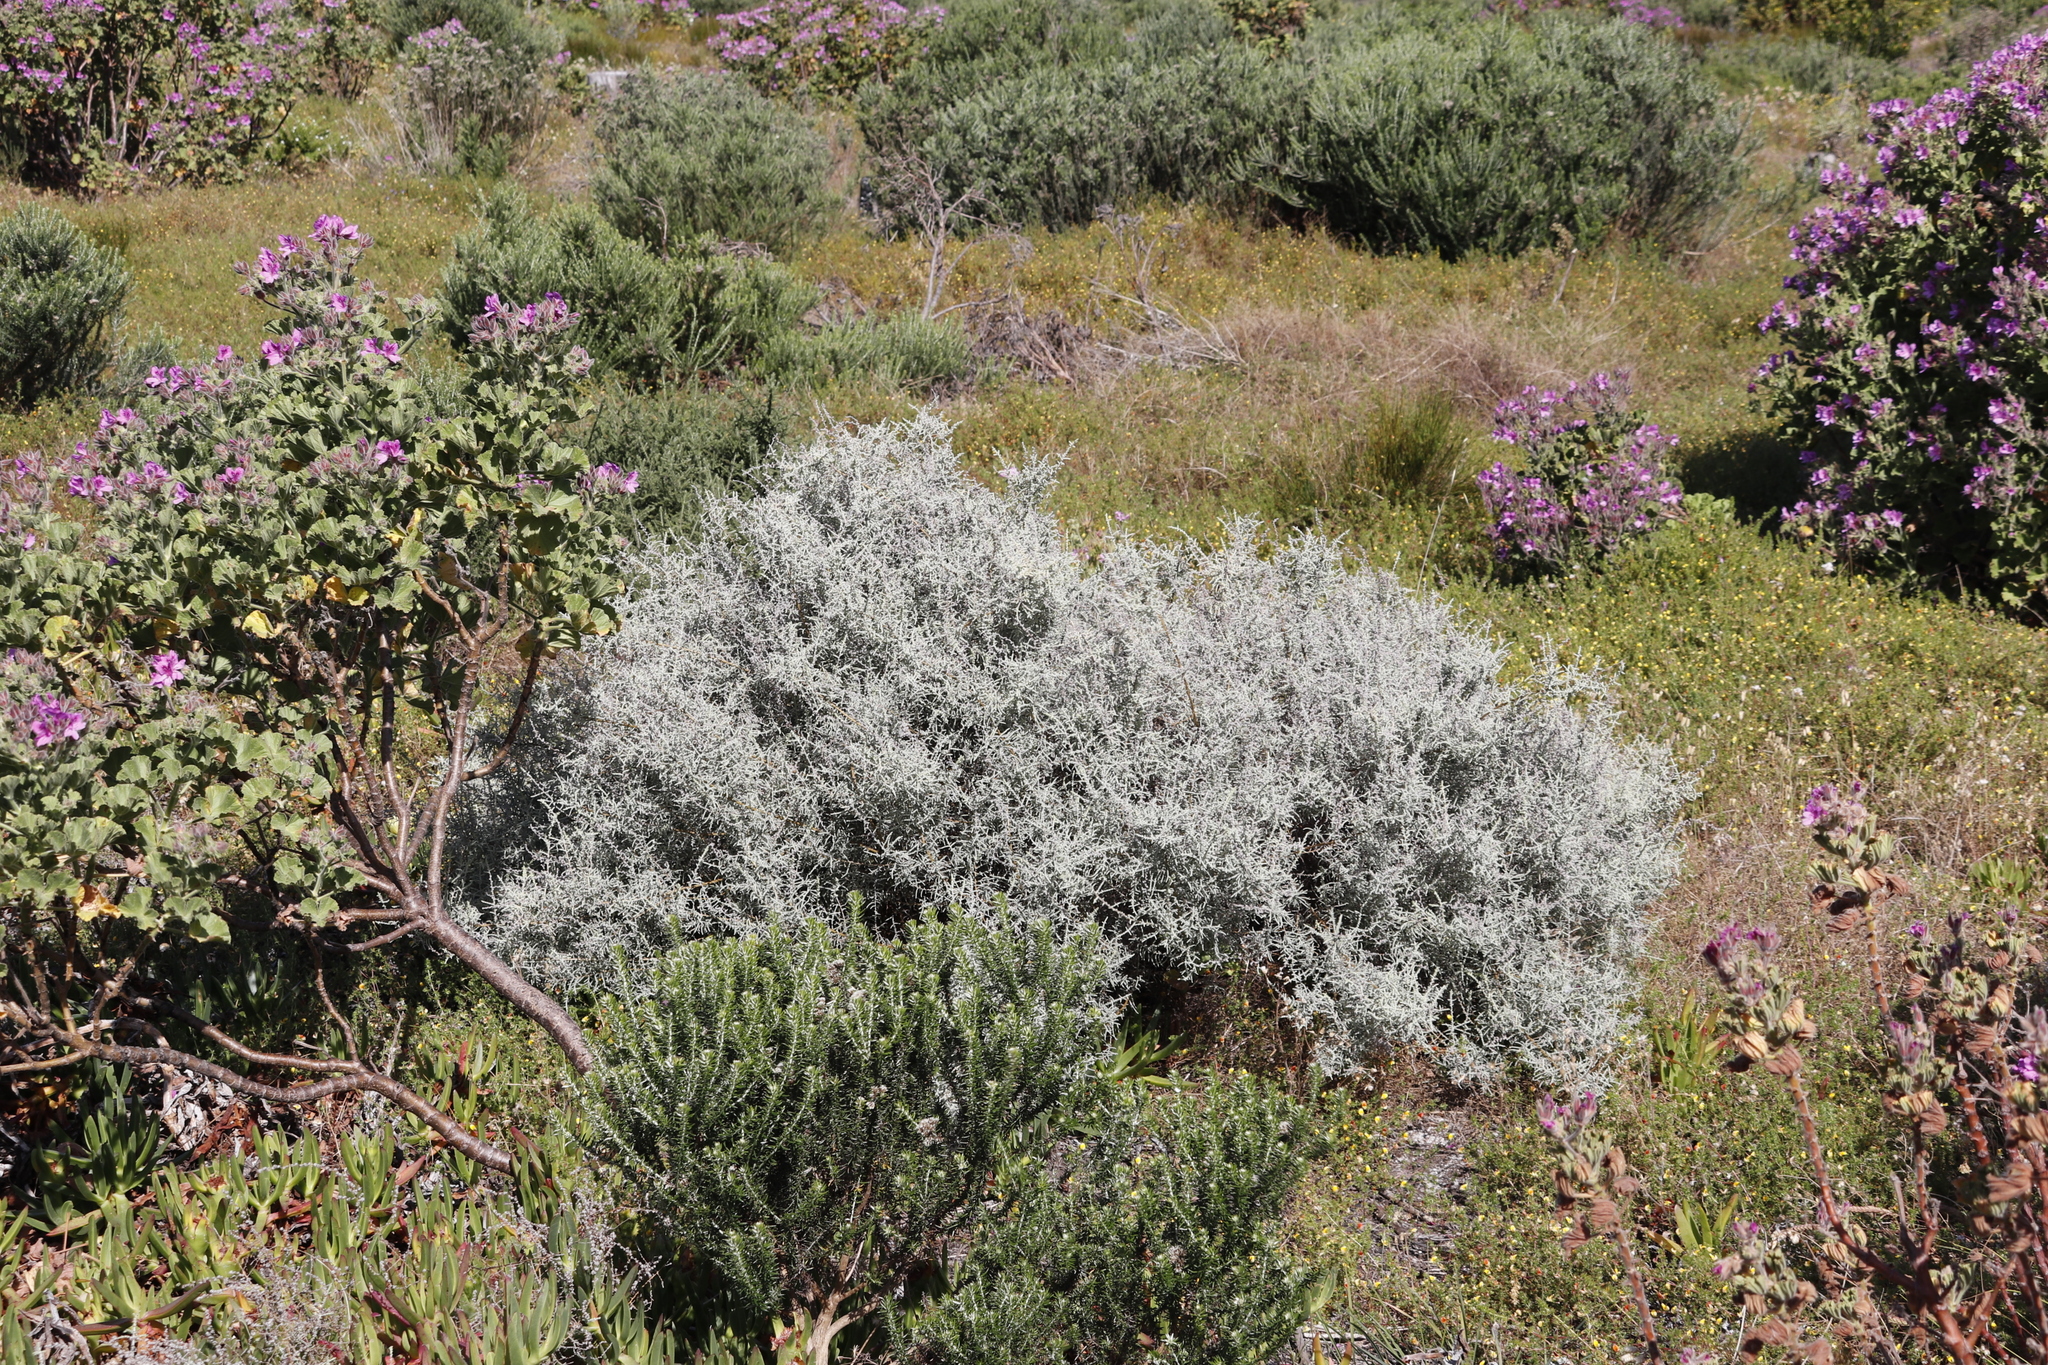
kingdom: Plantae
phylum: Tracheophyta
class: Magnoliopsida
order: Asterales
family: Asteraceae
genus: Seriphium
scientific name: Seriphium plumosum
